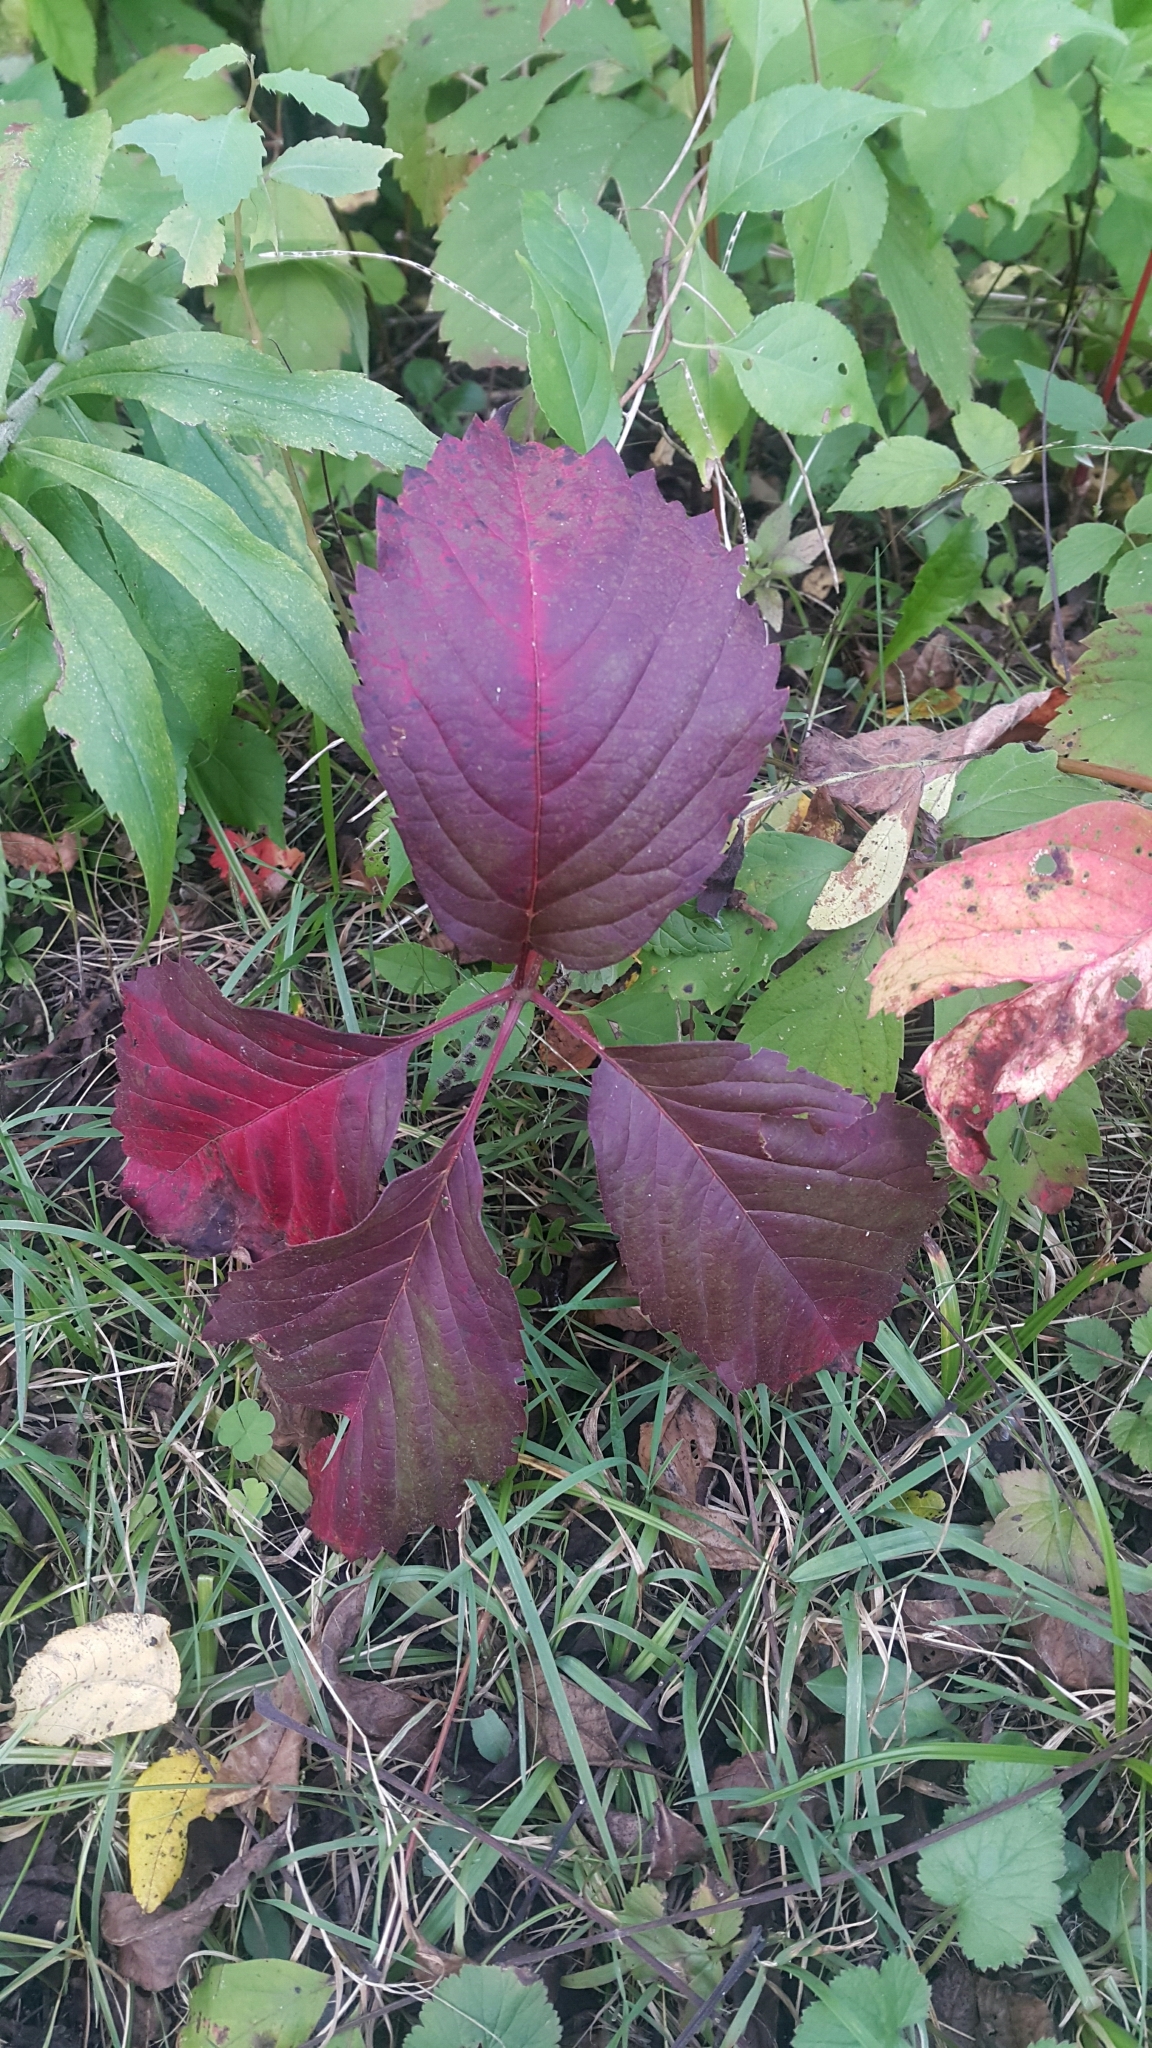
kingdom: Plantae
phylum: Tracheophyta
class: Magnoliopsida
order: Vitales
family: Vitaceae
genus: Parthenocissus
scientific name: Parthenocissus quinquefolia
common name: Virginia-creeper
